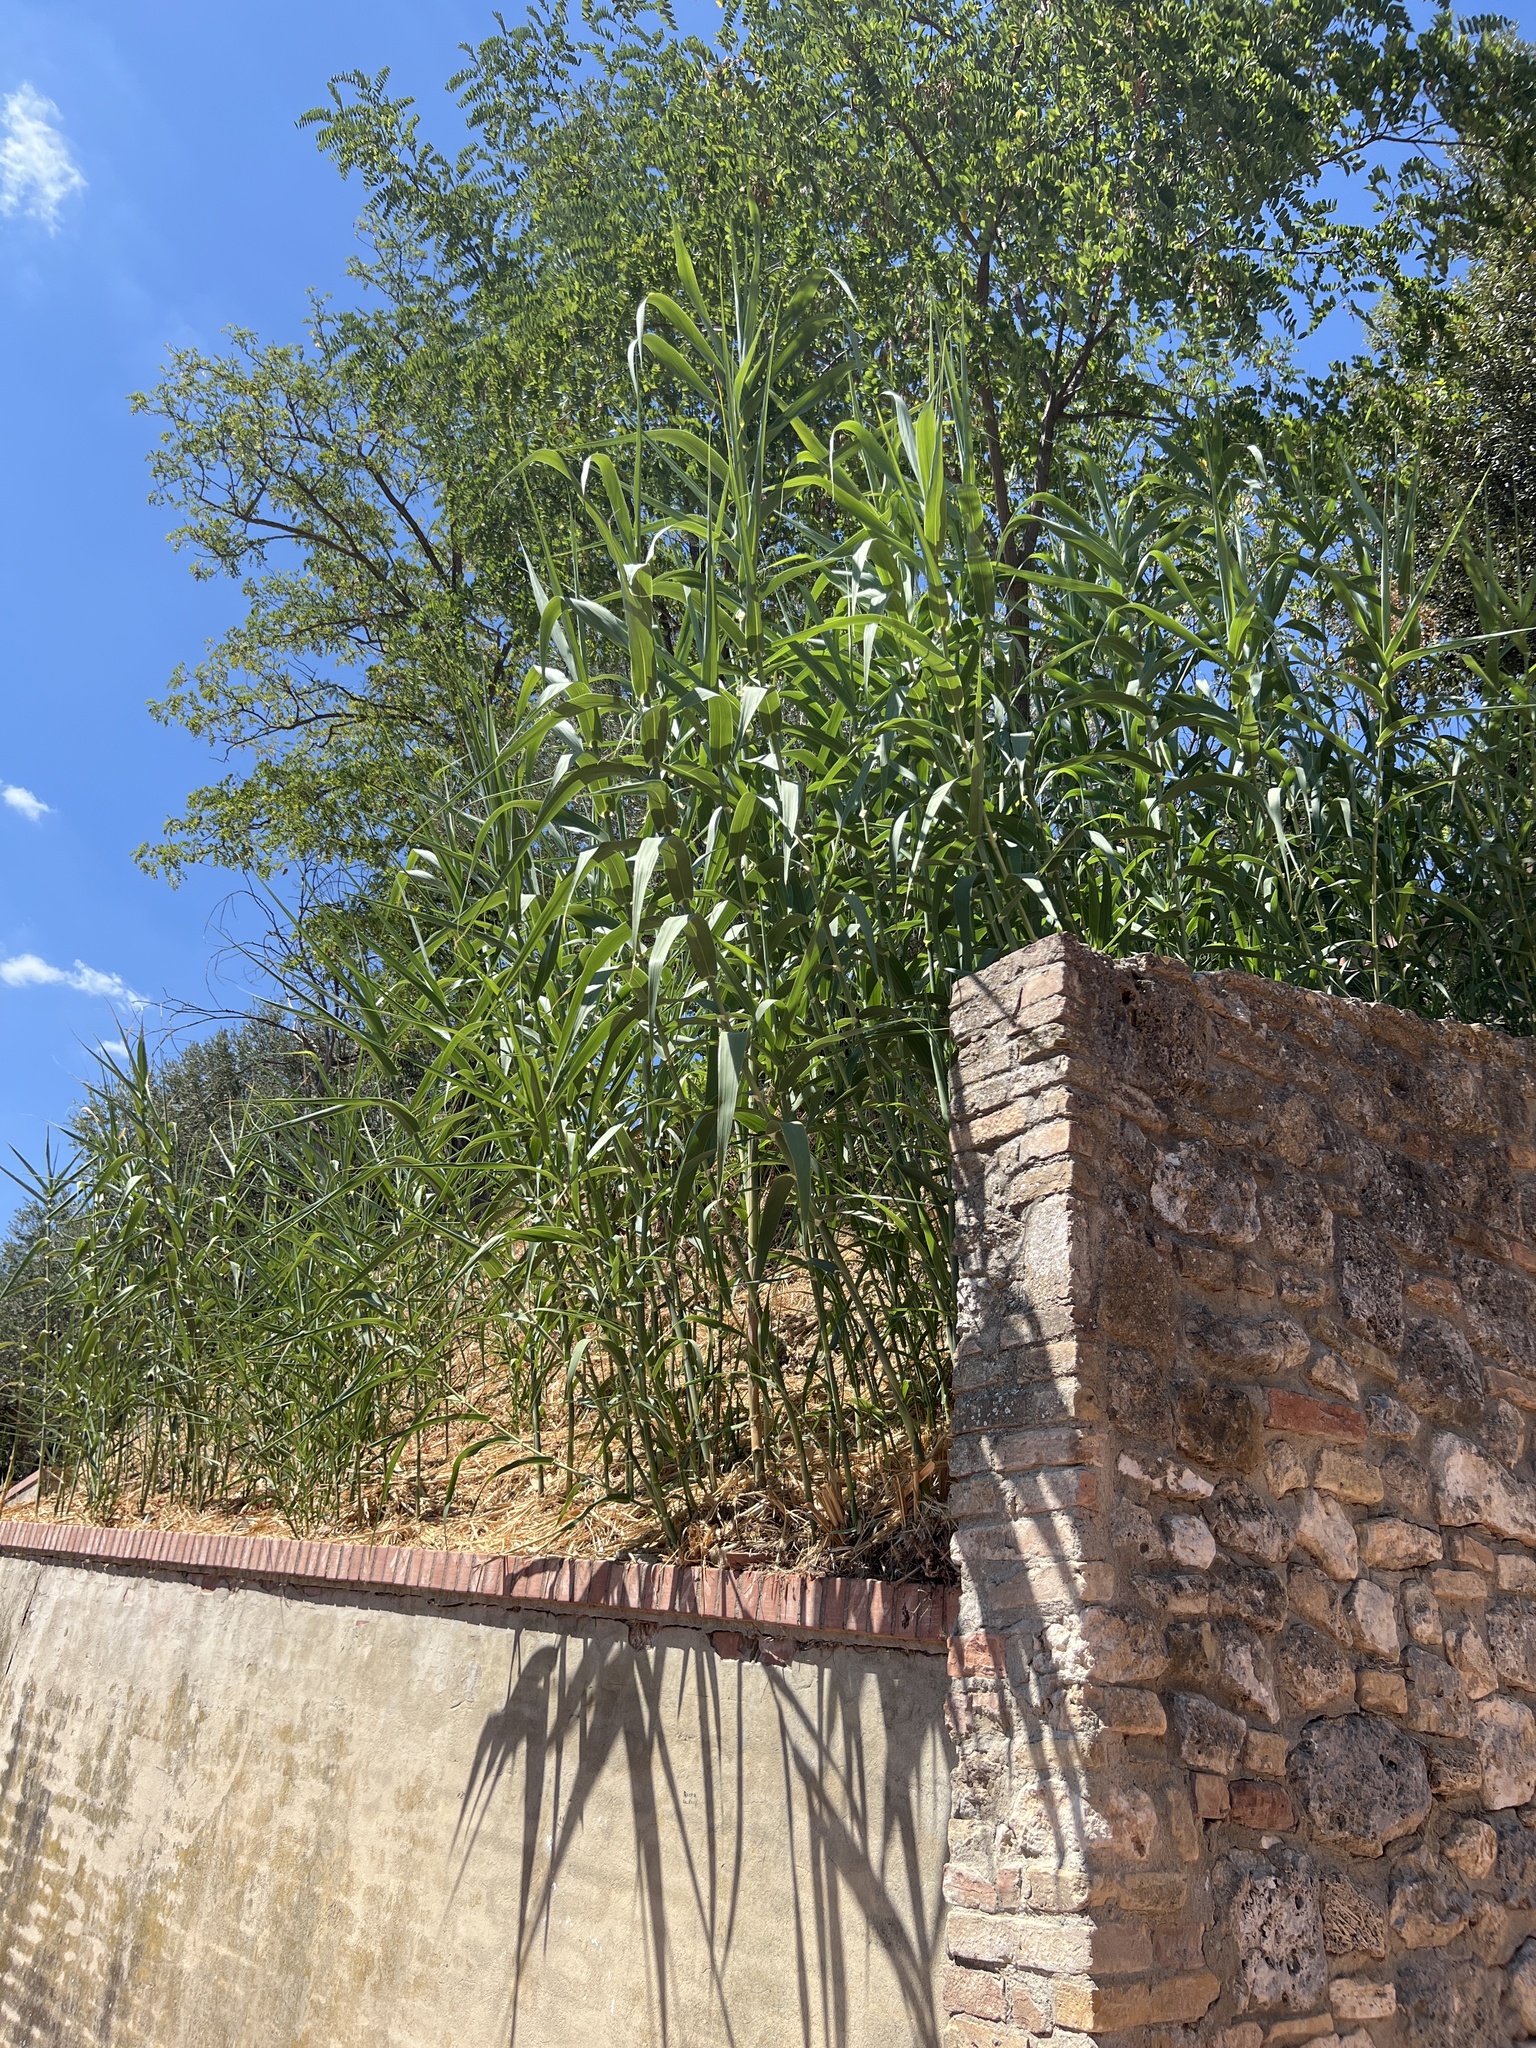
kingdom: Plantae
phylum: Tracheophyta
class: Liliopsida
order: Poales
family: Poaceae
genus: Arundo
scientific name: Arundo donax
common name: Giant reed
